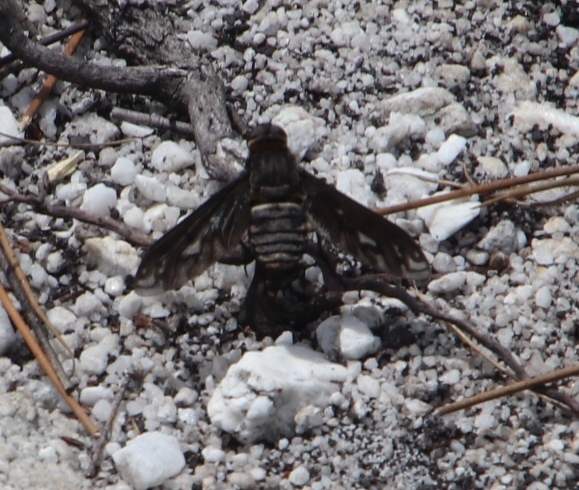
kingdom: Animalia
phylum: Arthropoda
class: Insecta
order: Diptera
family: Bombyliidae
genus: Heteralonia
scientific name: Heteralonia leucothyrida
